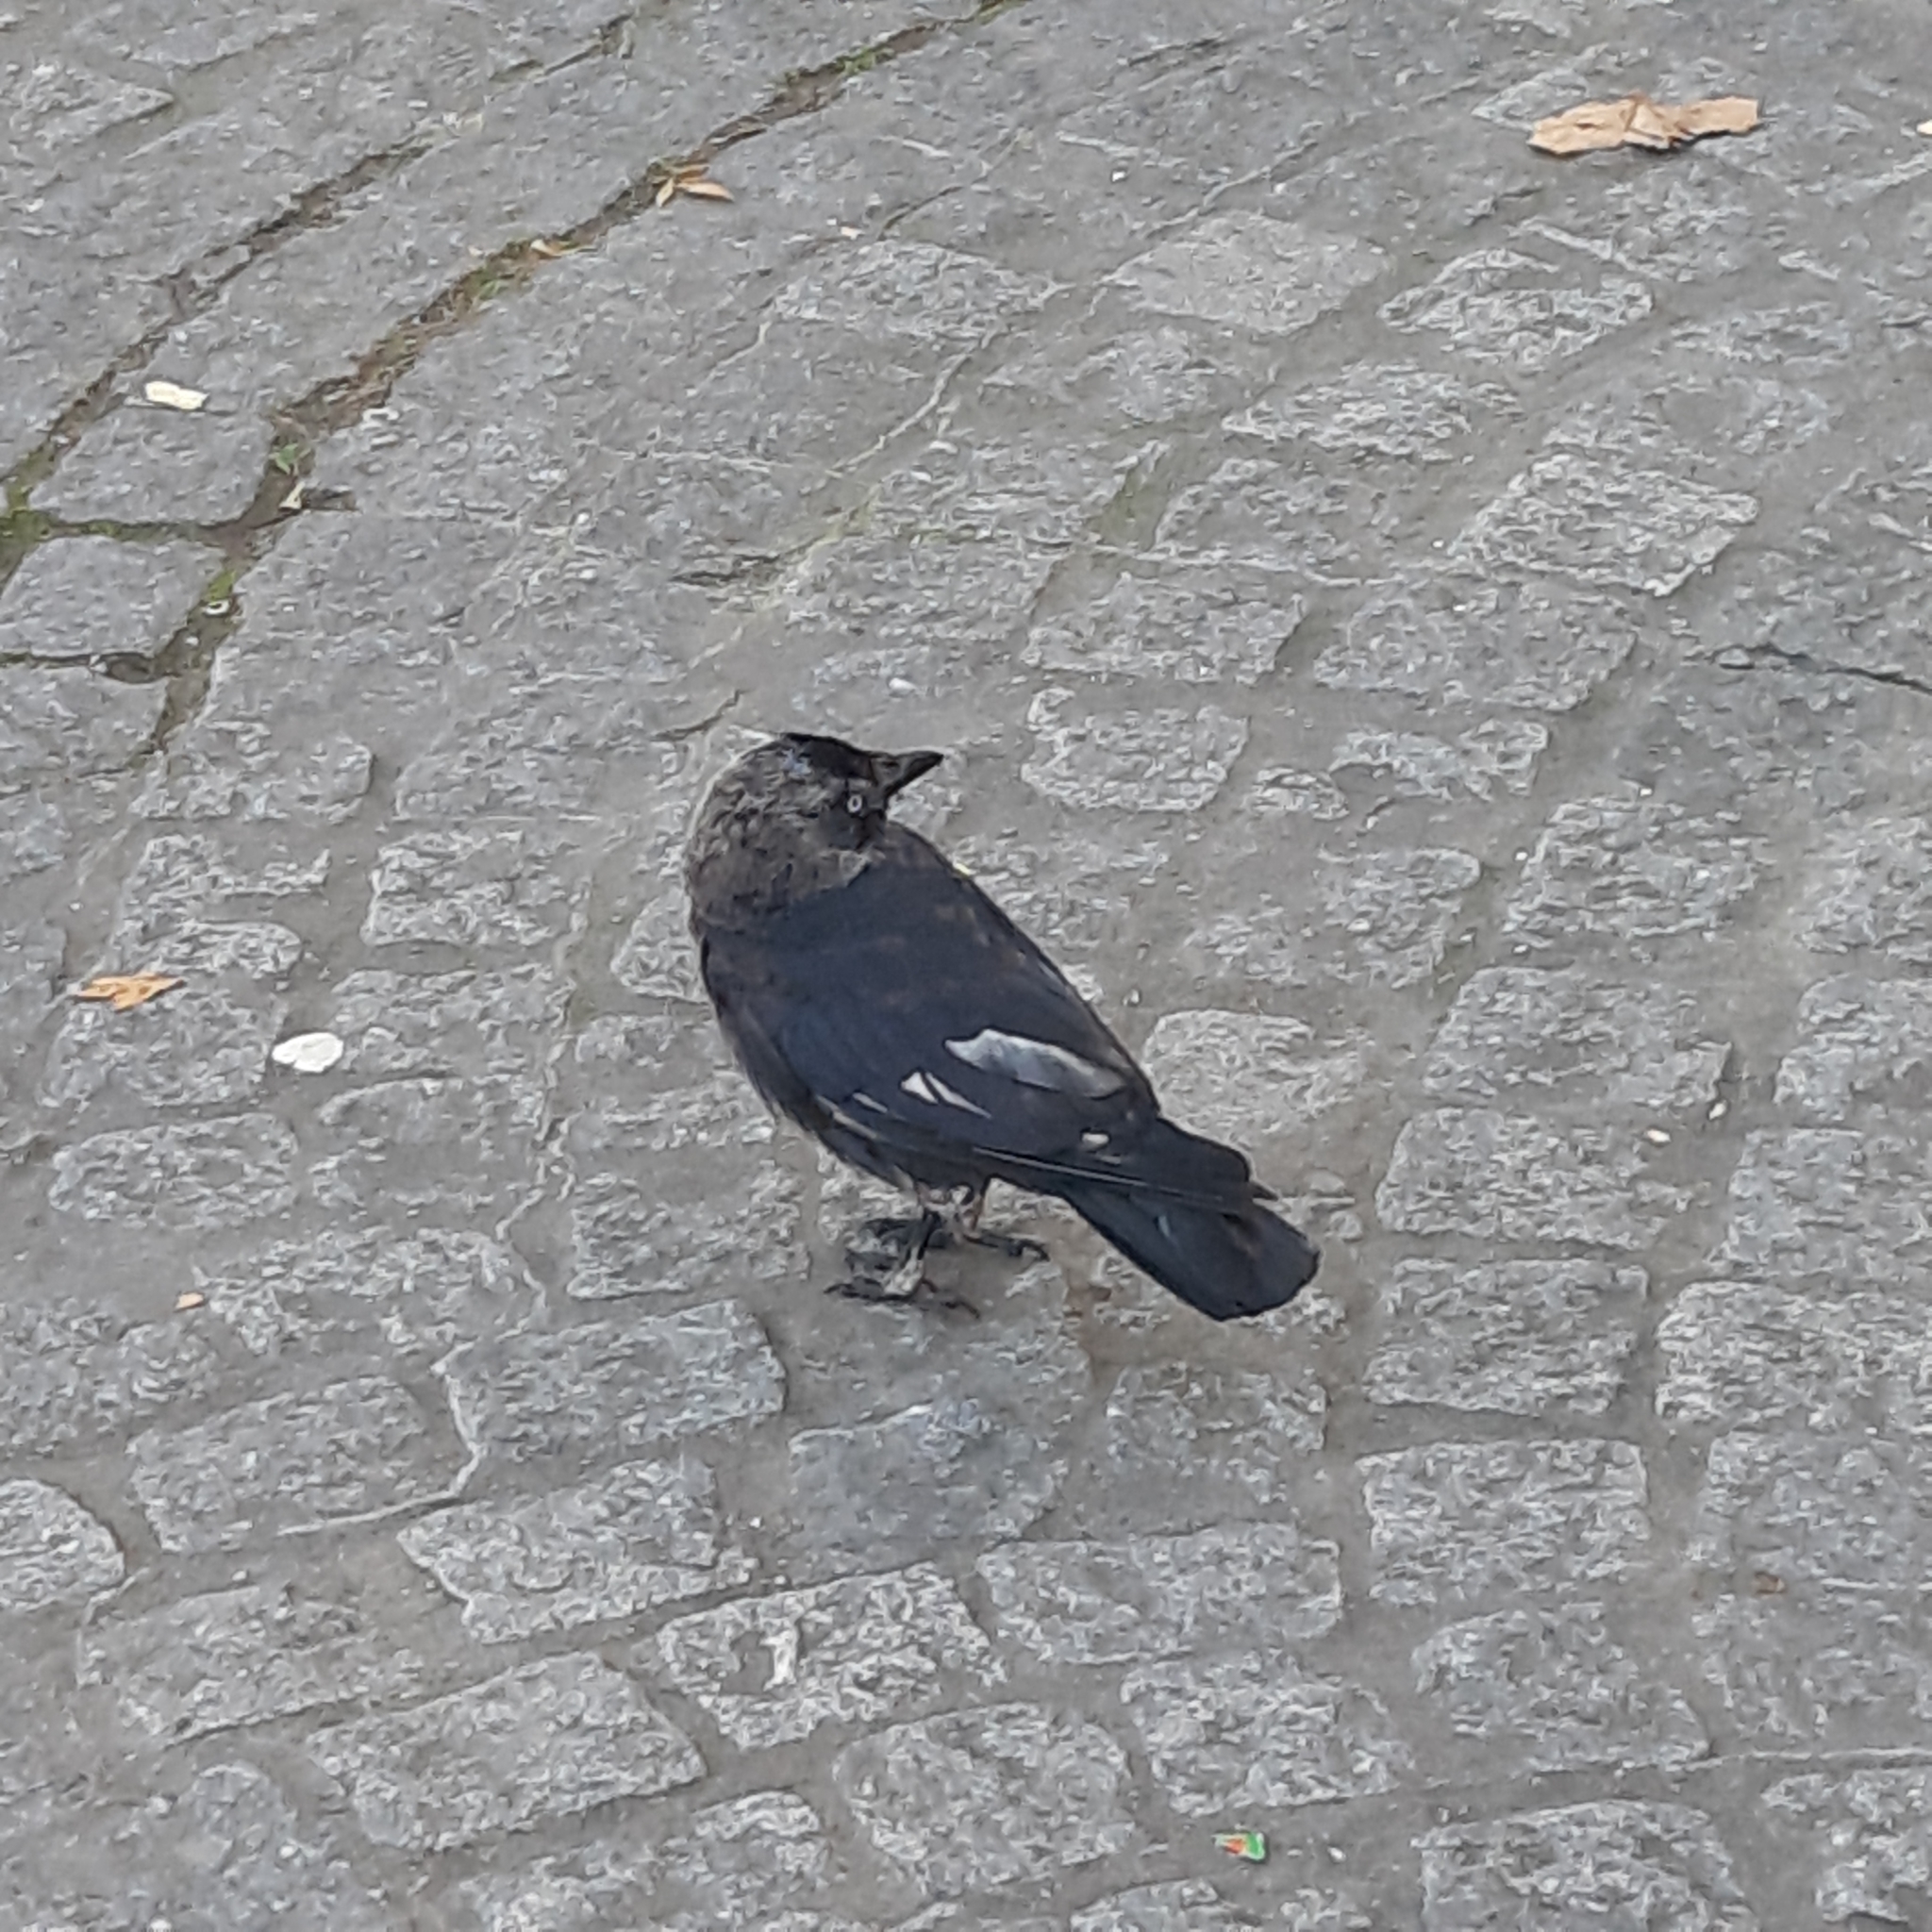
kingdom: Animalia
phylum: Chordata
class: Aves
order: Passeriformes
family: Corvidae
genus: Coloeus
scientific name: Coloeus monedula
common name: Western jackdaw
